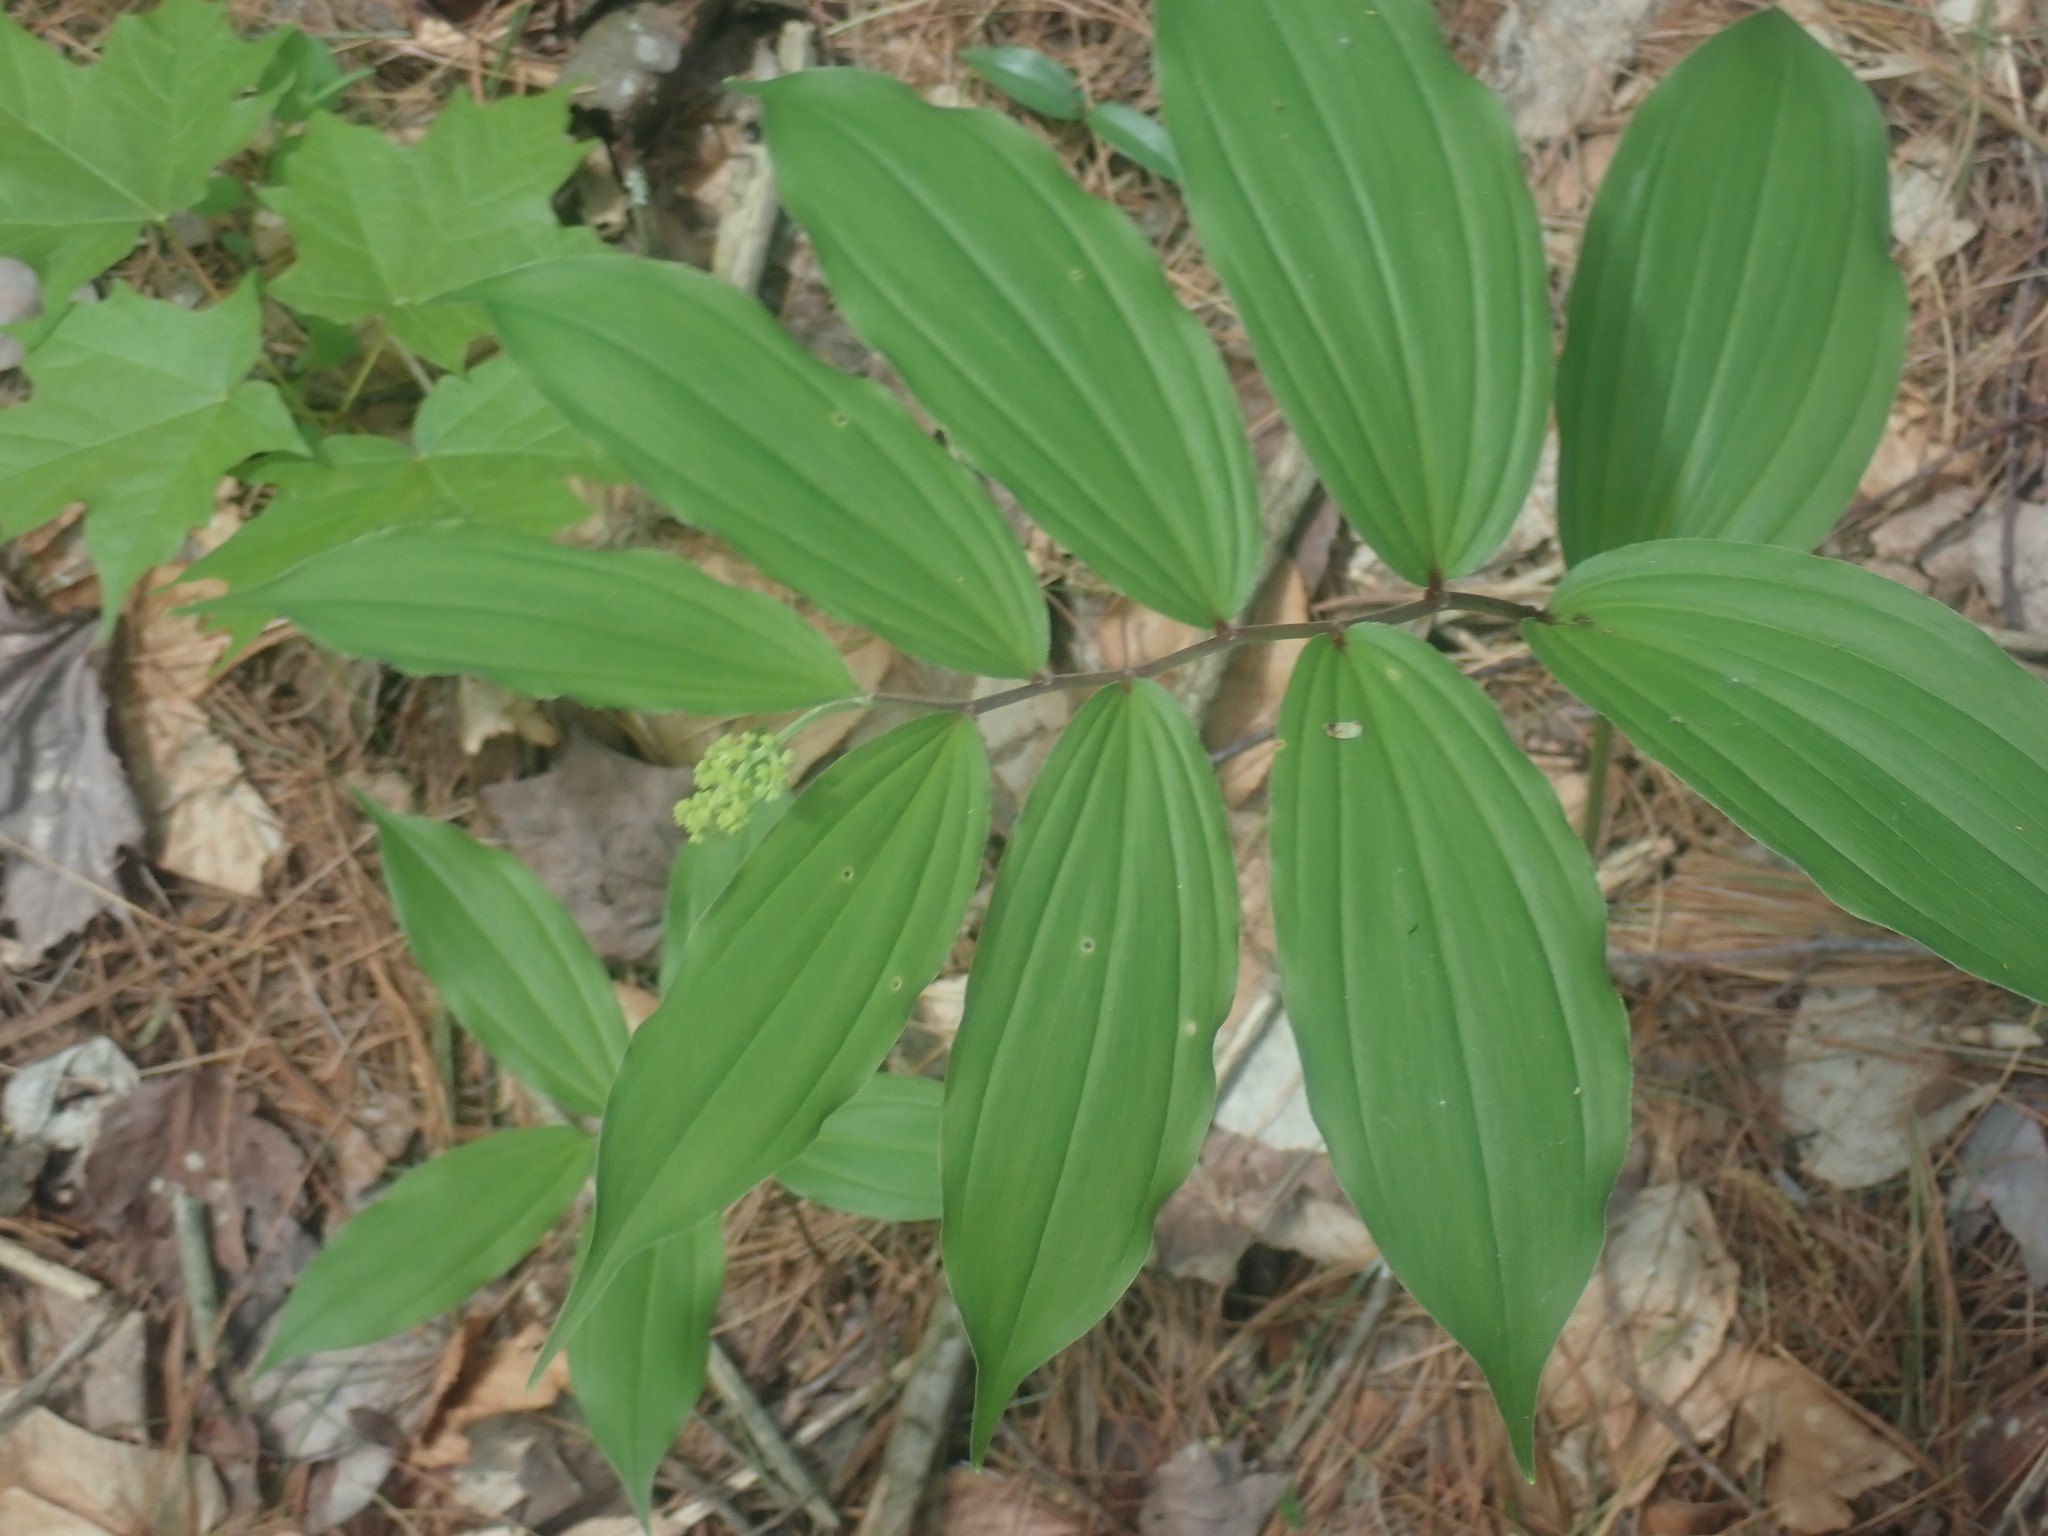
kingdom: Plantae
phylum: Tracheophyta
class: Liliopsida
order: Asparagales
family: Asparagaceae
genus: Maianthemum
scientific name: Maianthemum racemosum
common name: False spikenard
